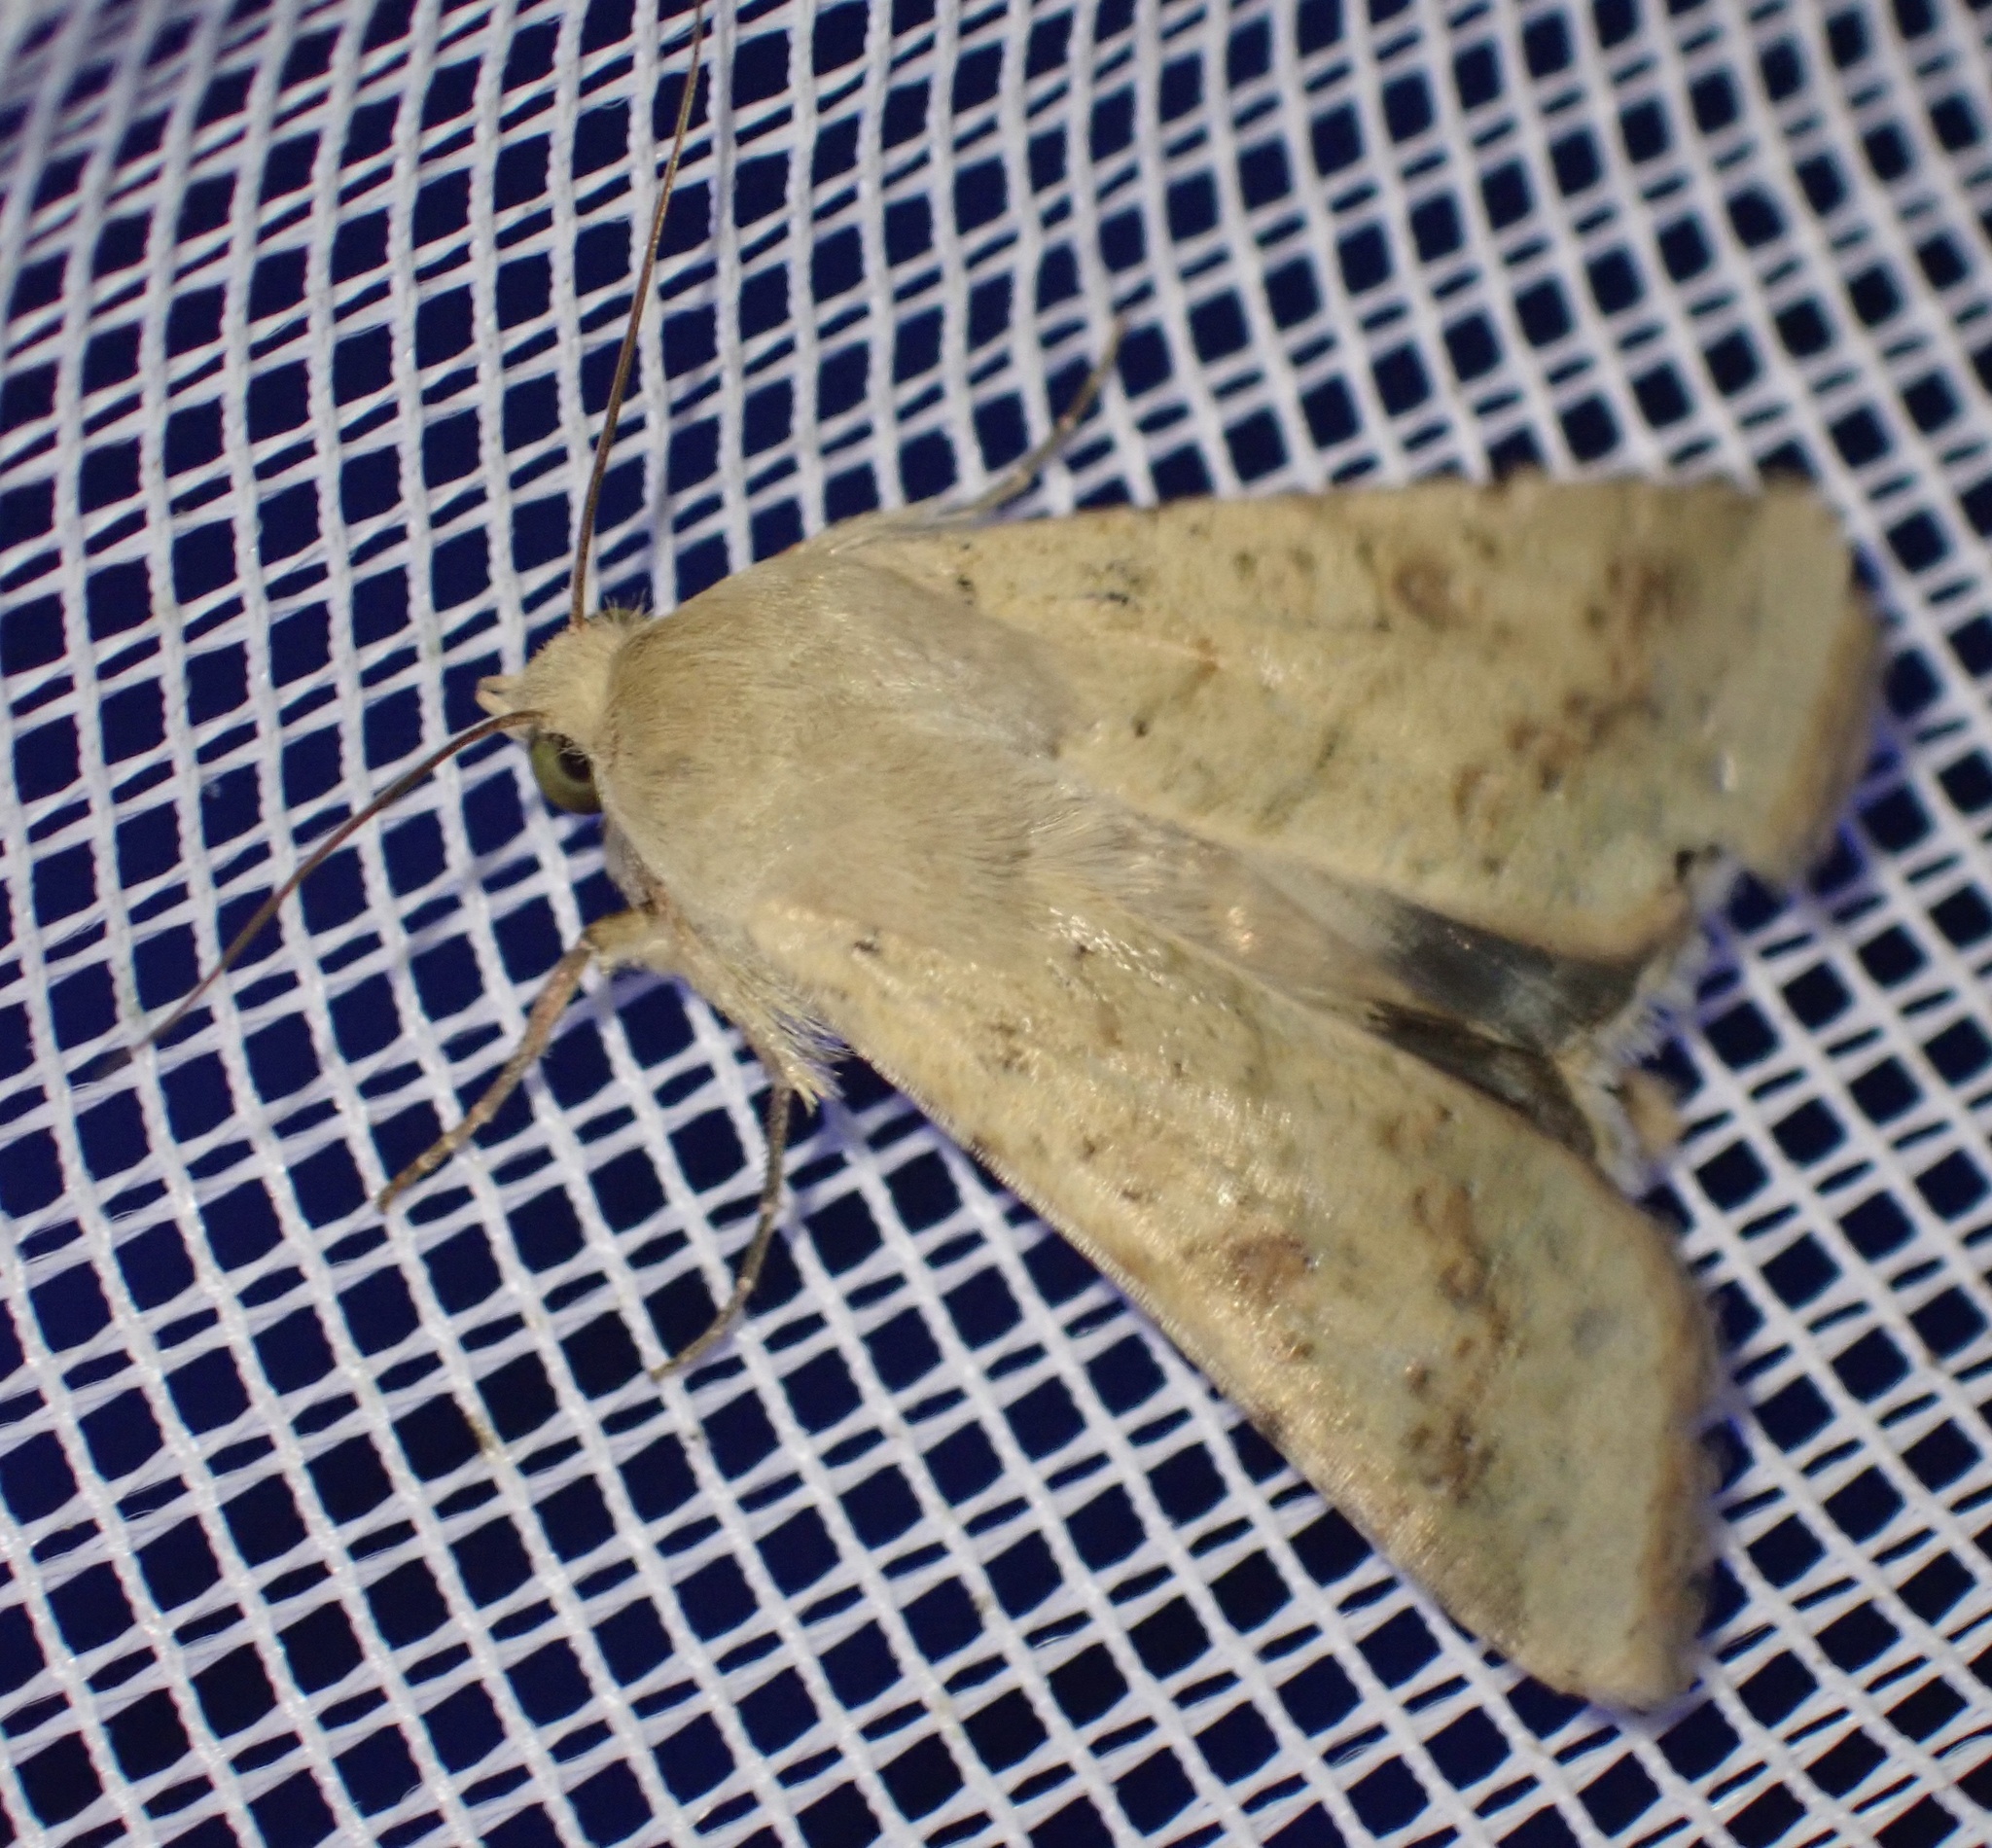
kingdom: Animalia
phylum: Arthropoda
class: Insecta
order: Lepidoptera
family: Noctuidae
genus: Helicoverpa
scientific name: Helicoverpa armigera
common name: Cotton bollworm
